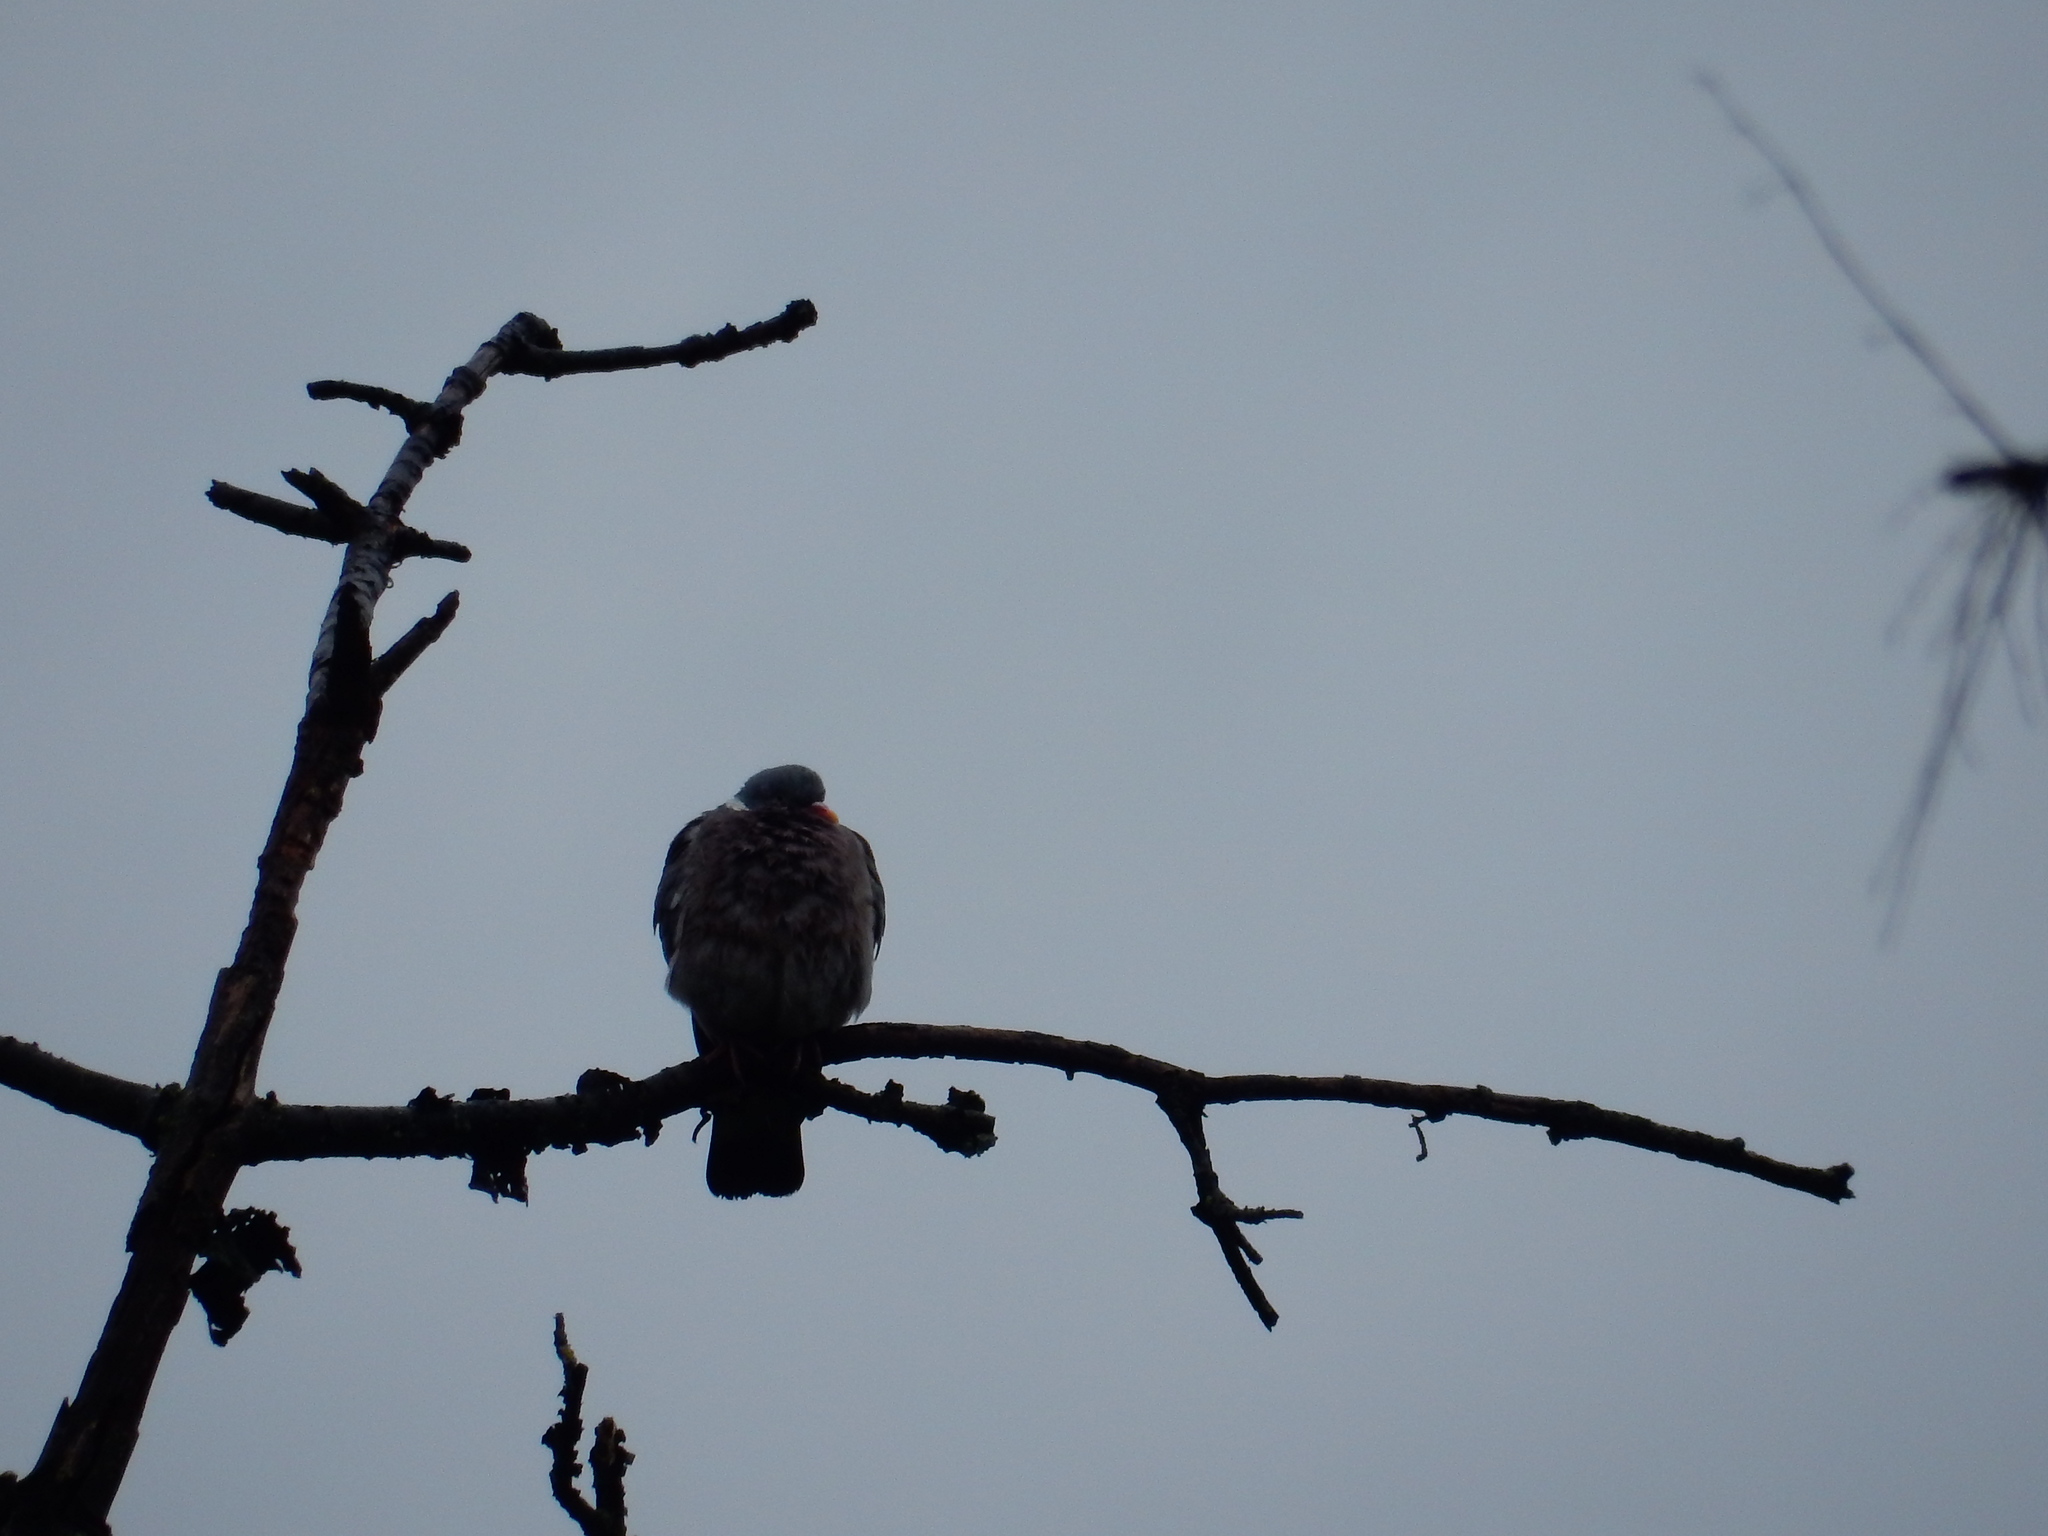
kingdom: Animalia
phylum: Chordata
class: Aves
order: Columbiformes
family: Columbidae
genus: Columba
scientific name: Columba palumbus
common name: Common wood pigeon
